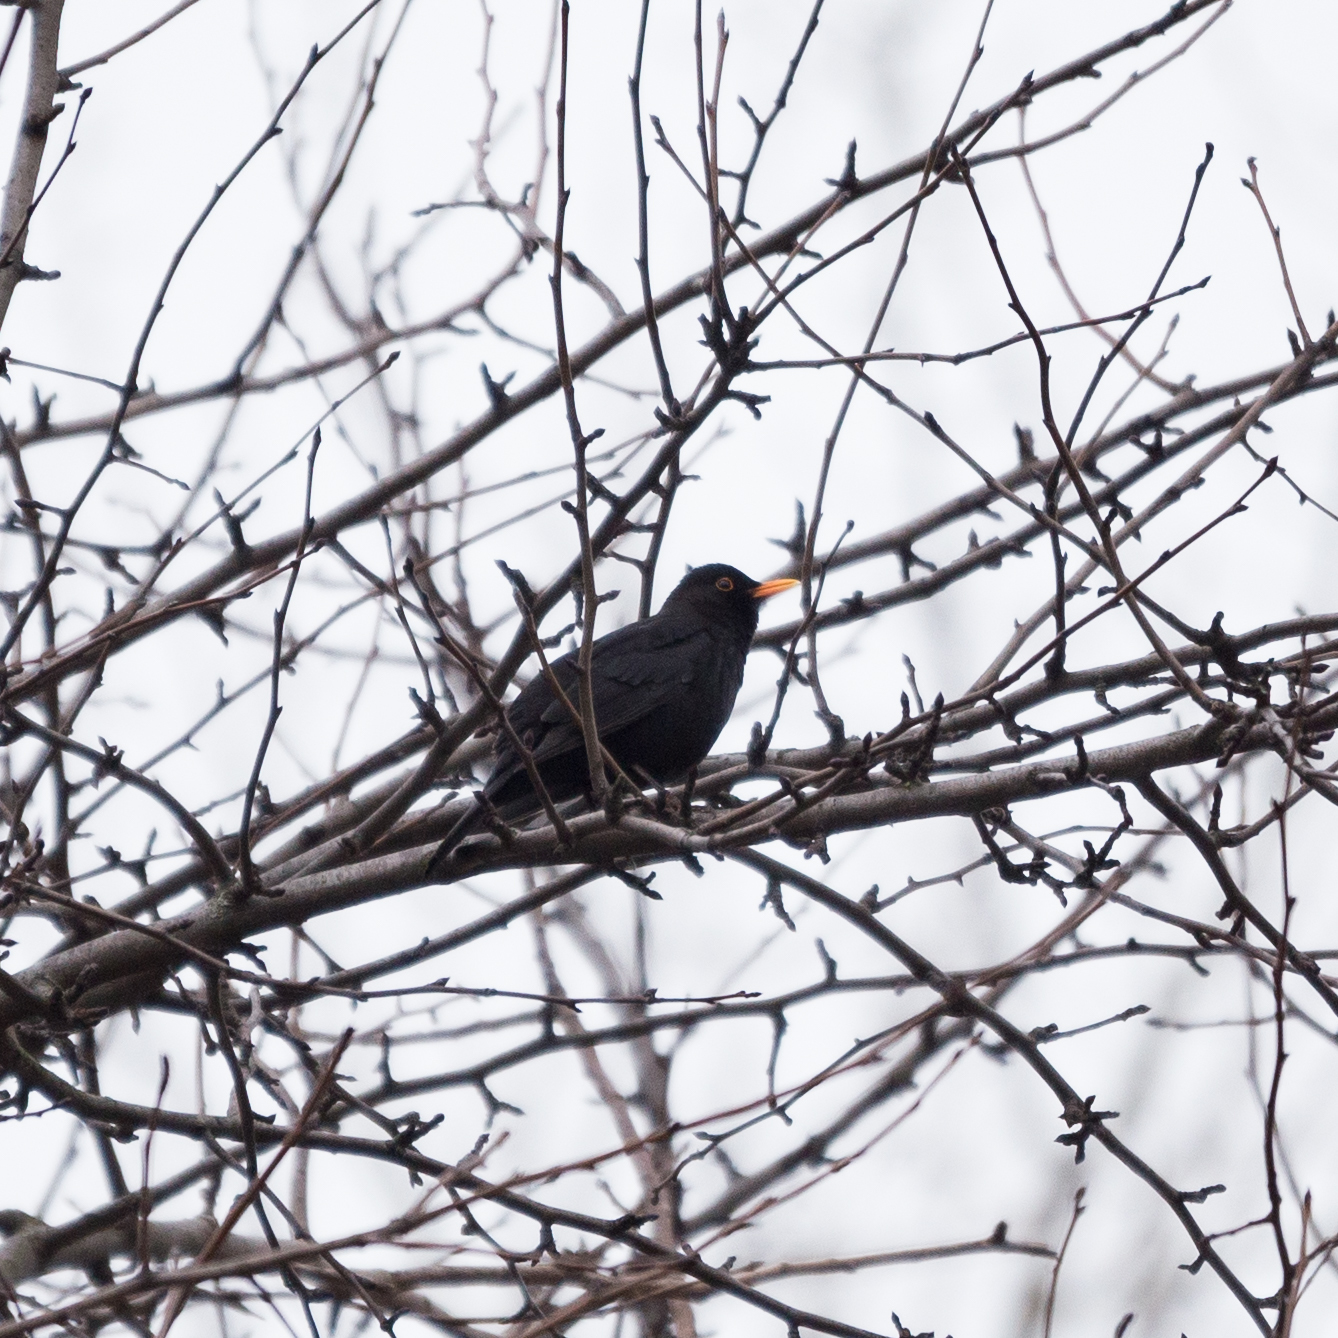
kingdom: Animalia
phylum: Chordata
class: Aves
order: Passeriformes
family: Turdidae
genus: Turdus
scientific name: Turdus merula
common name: Common blackbird
